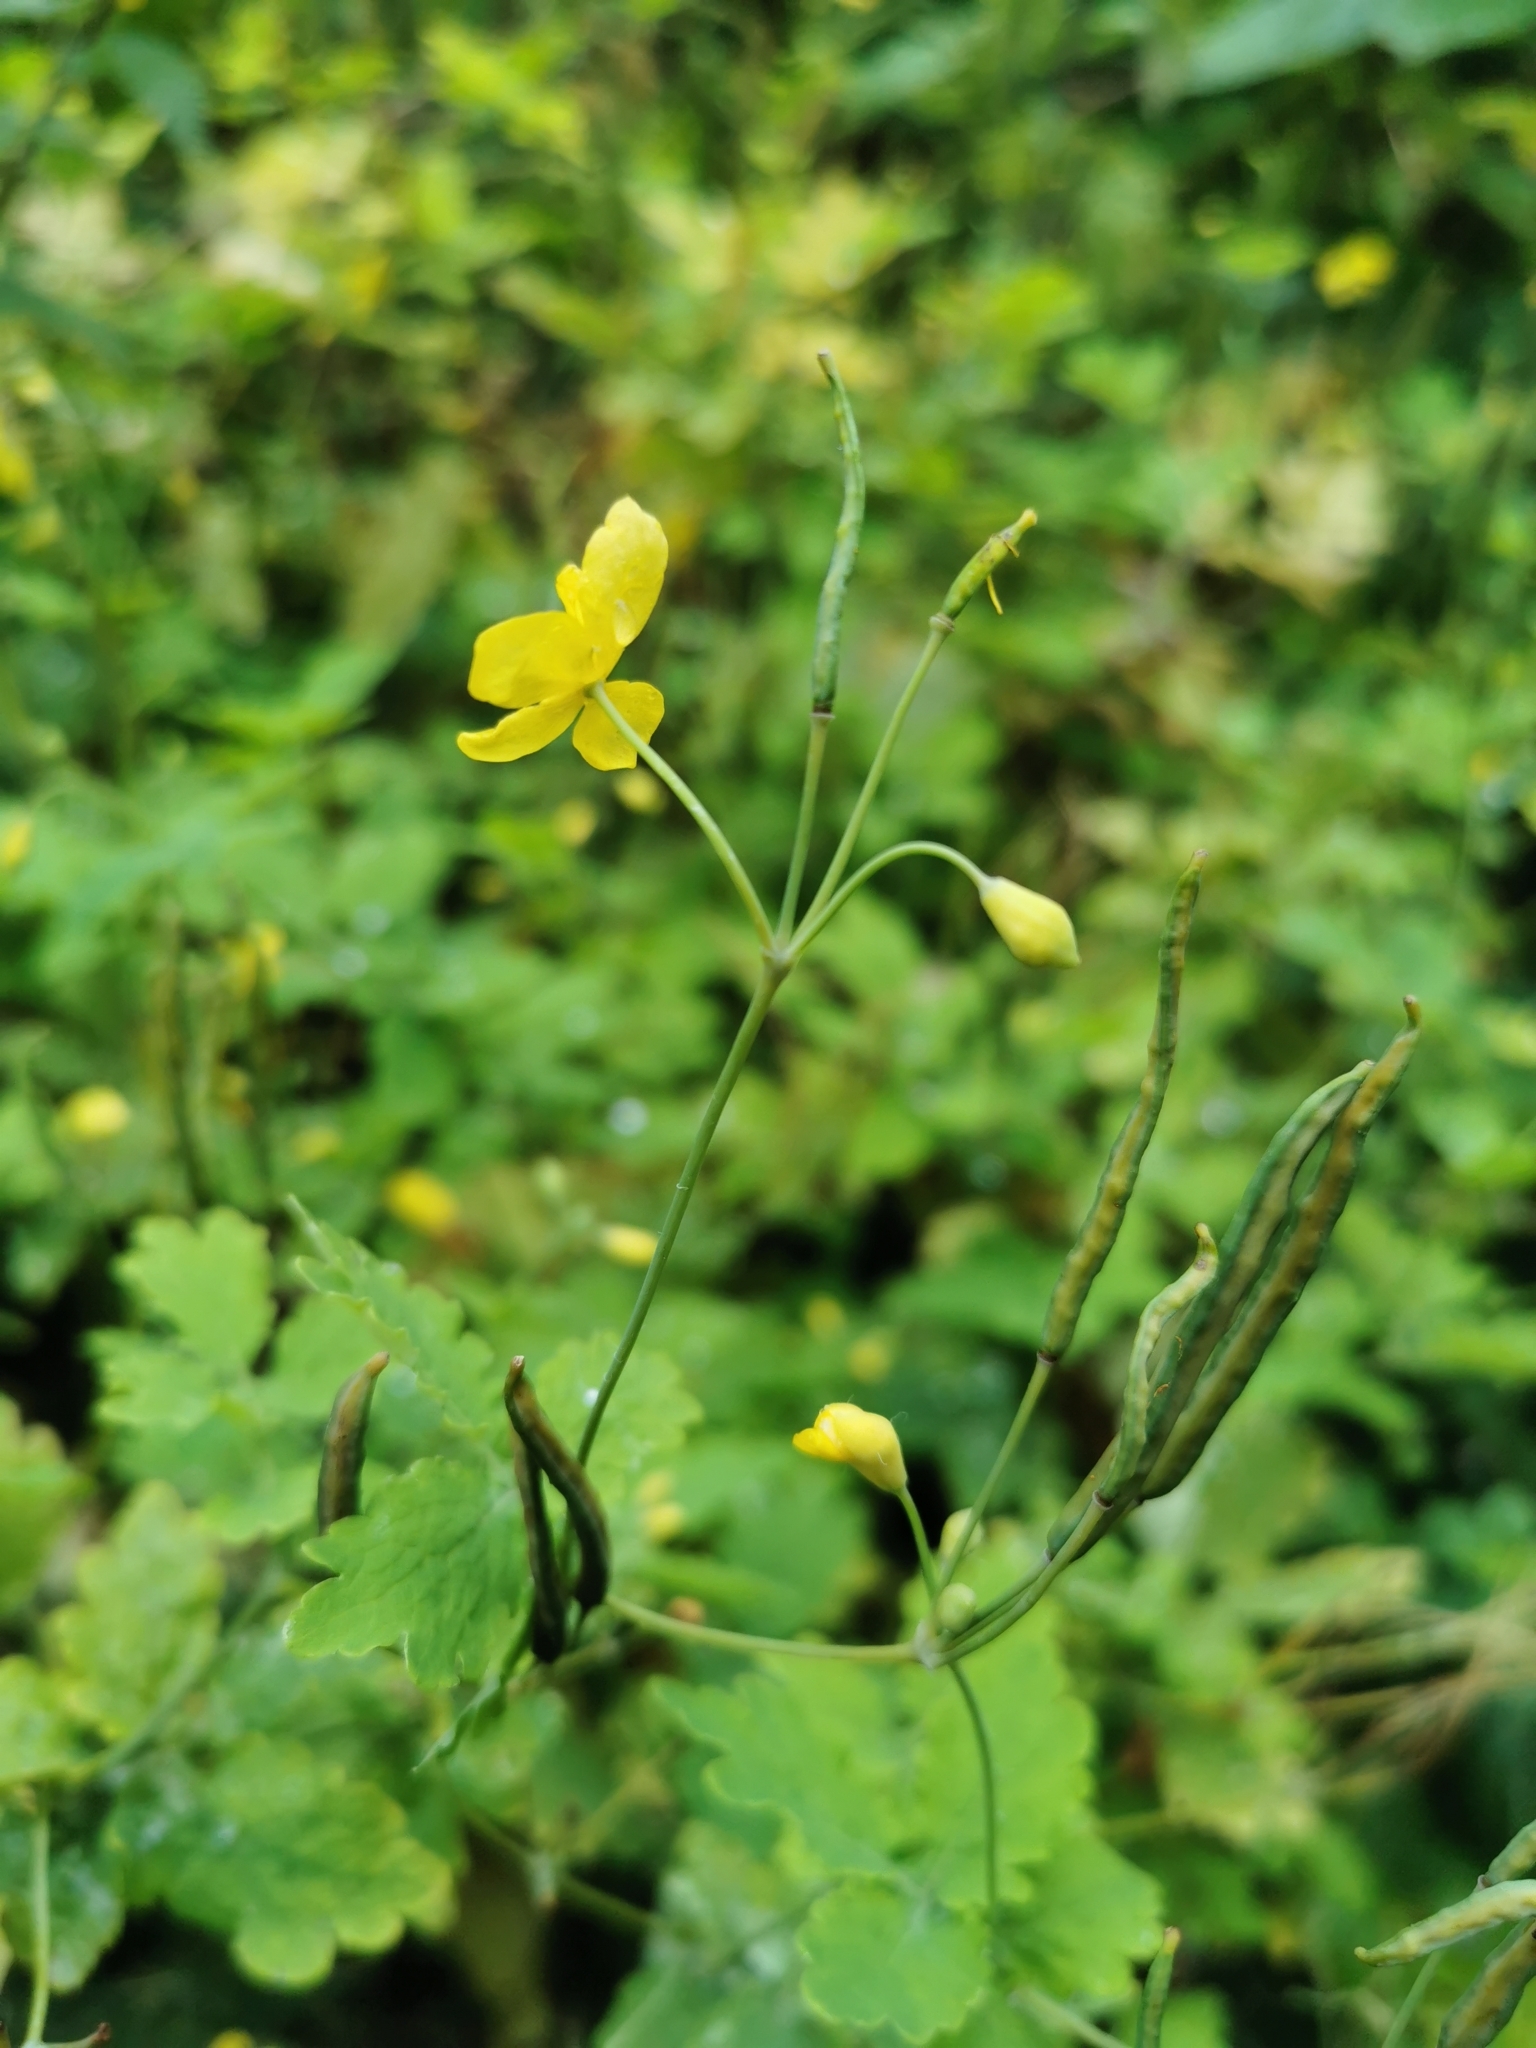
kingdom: Plantae
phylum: Tracheophyta
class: Magnoliopsida
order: Ranunculales
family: Papaveraceae
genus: Chelidonium
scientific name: Chelidonium majus
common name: Greater celandine
